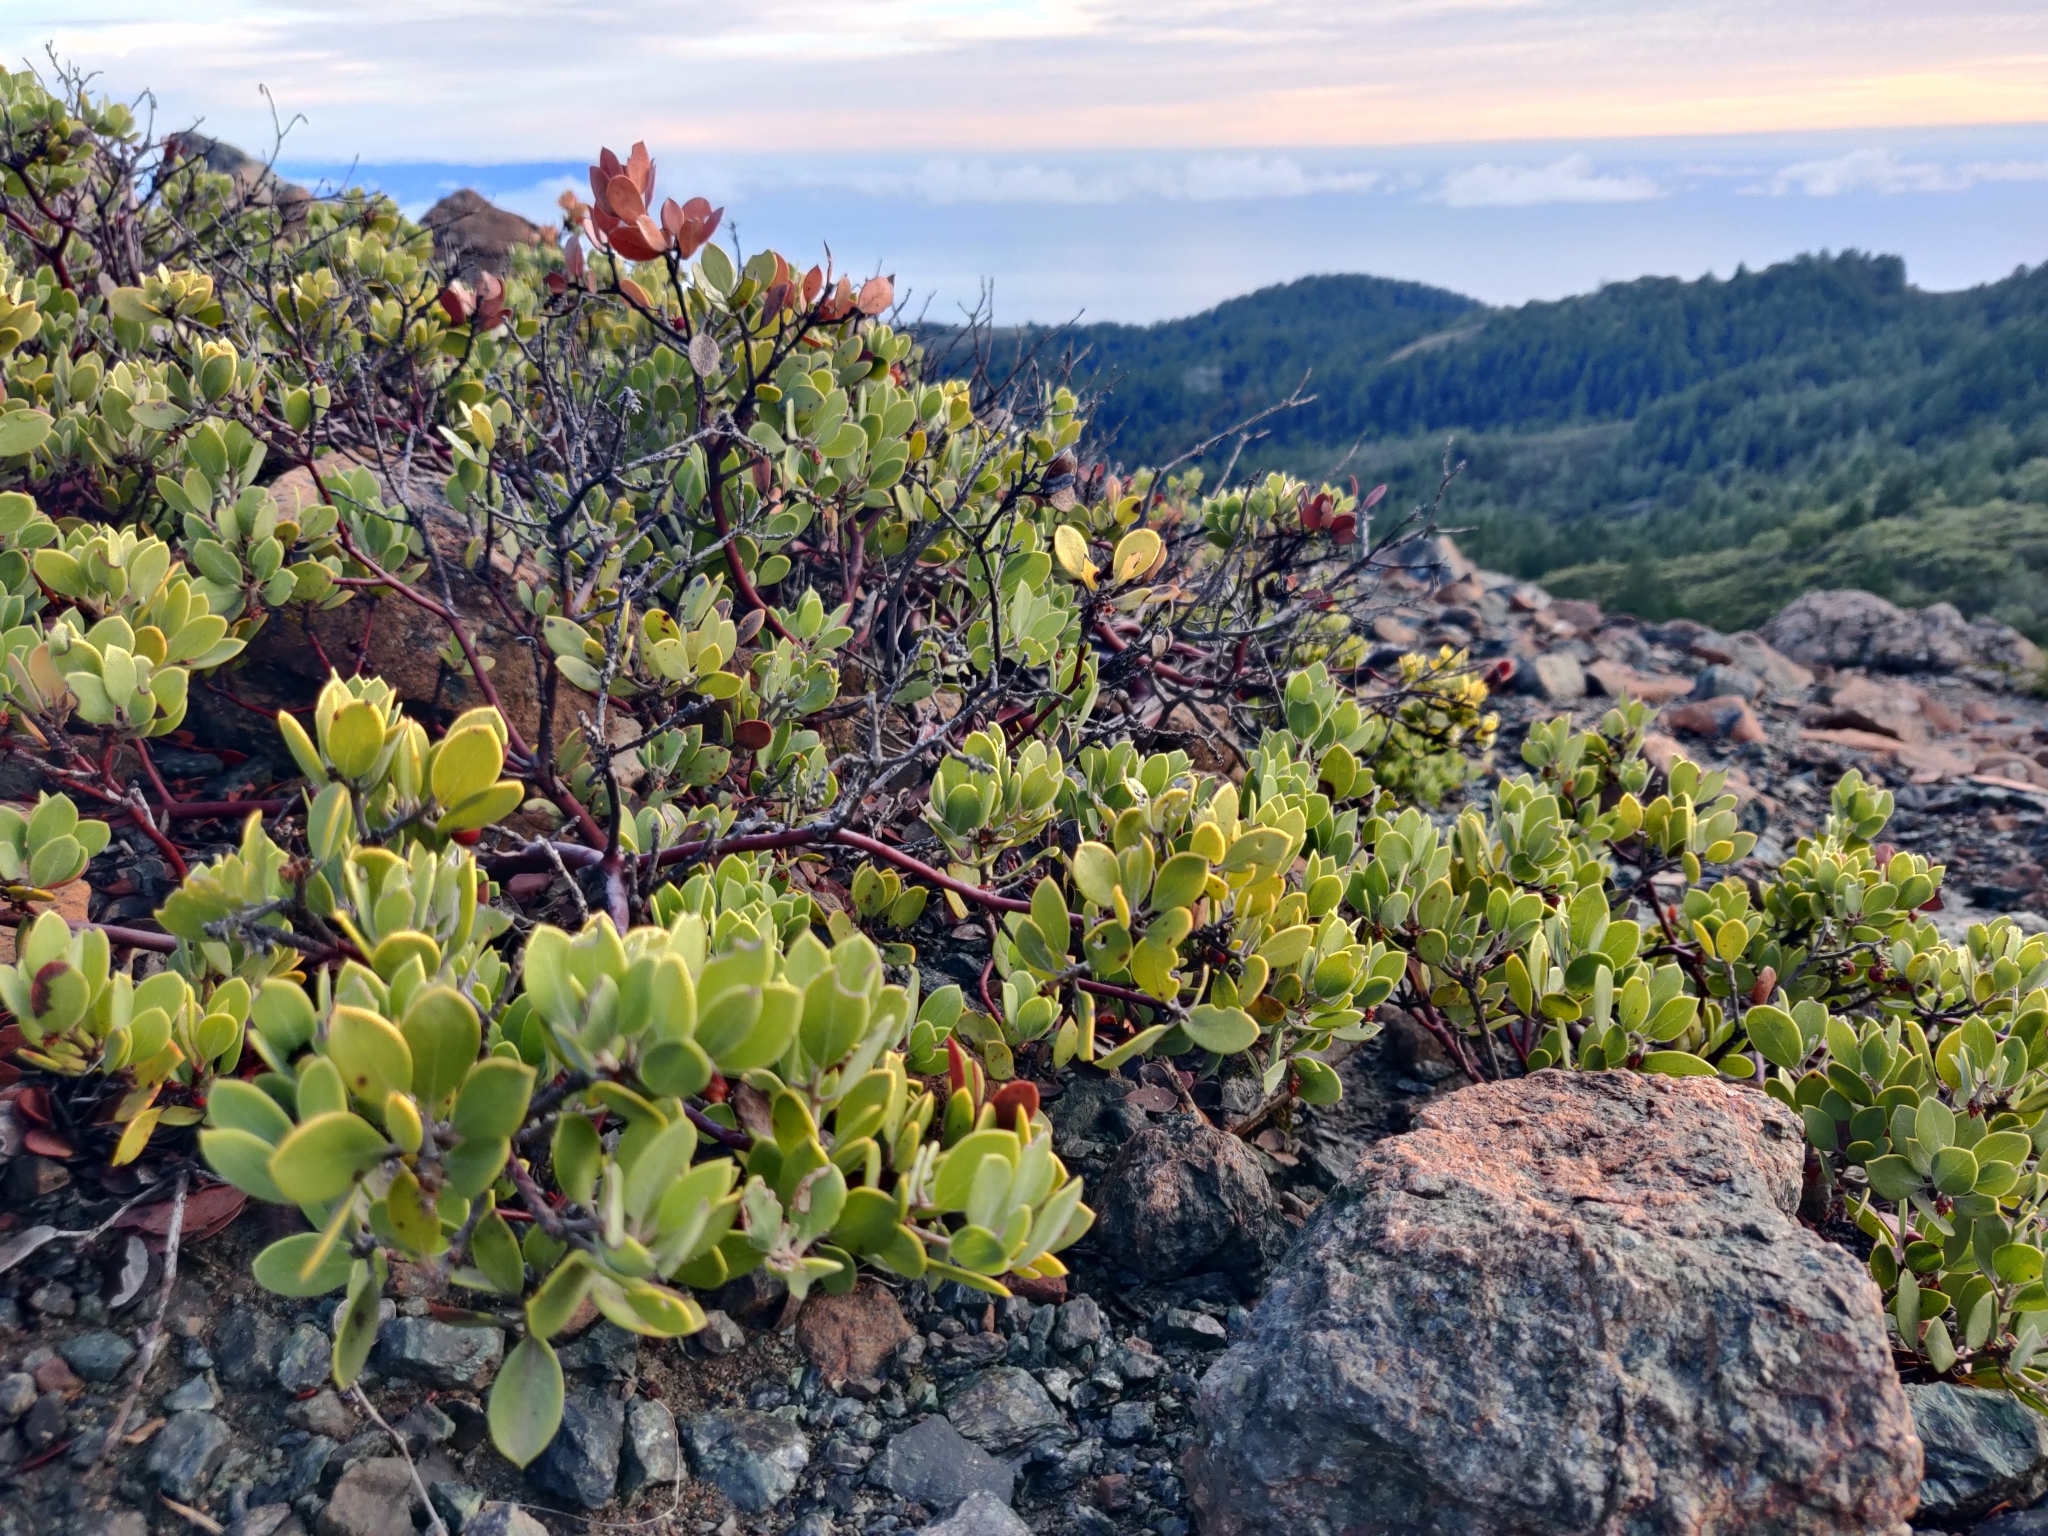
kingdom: Plantae
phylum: Tracheophyta
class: Magnoliopsida
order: Ericales
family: Ericaceae
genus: Arctostaphylos
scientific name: Arctostaphylos montana
